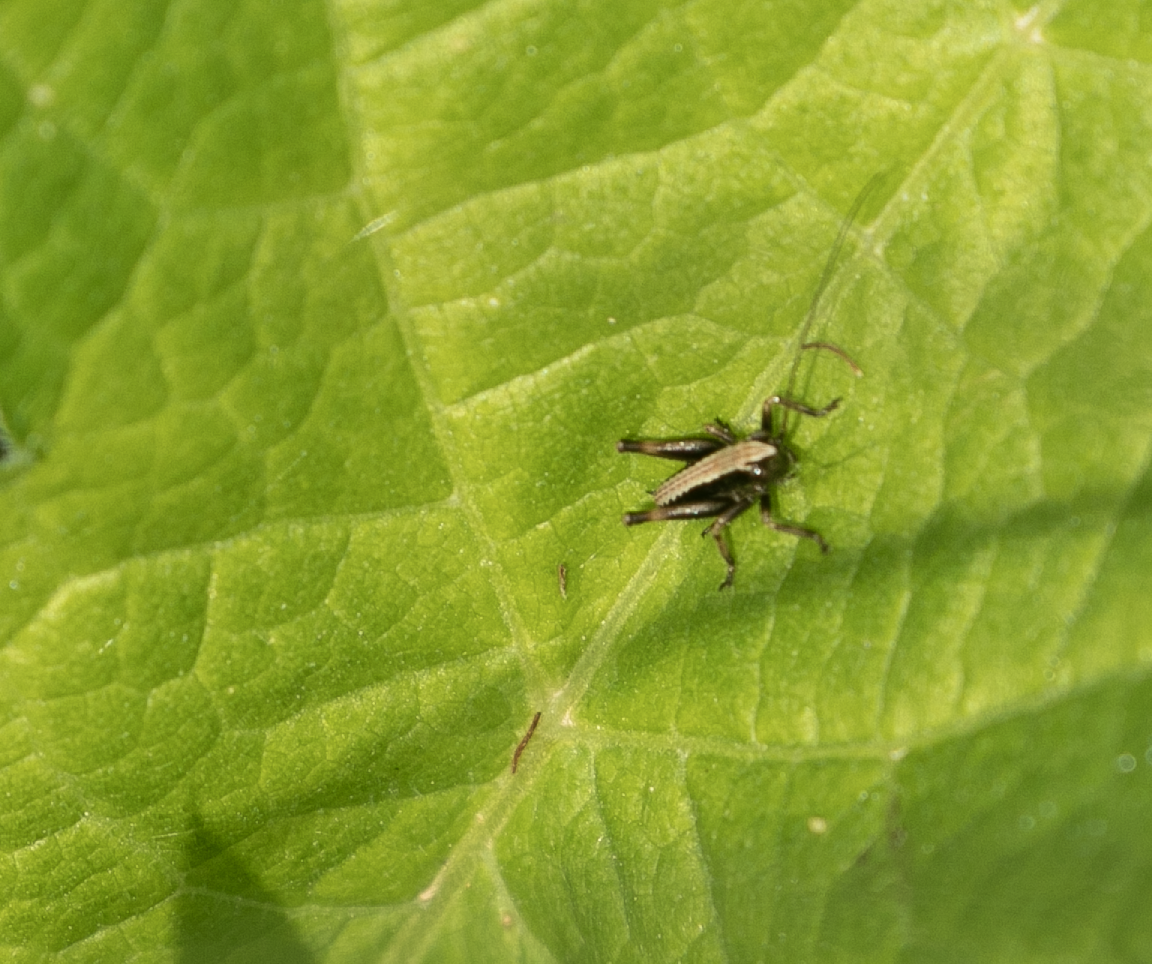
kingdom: Animalia
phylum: Arthropoda
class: Insecta
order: Orthoptera
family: Tettigoniidae
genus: Pholidoptera
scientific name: Pholidoptera griseoaptera
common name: Dark bush-cricket
